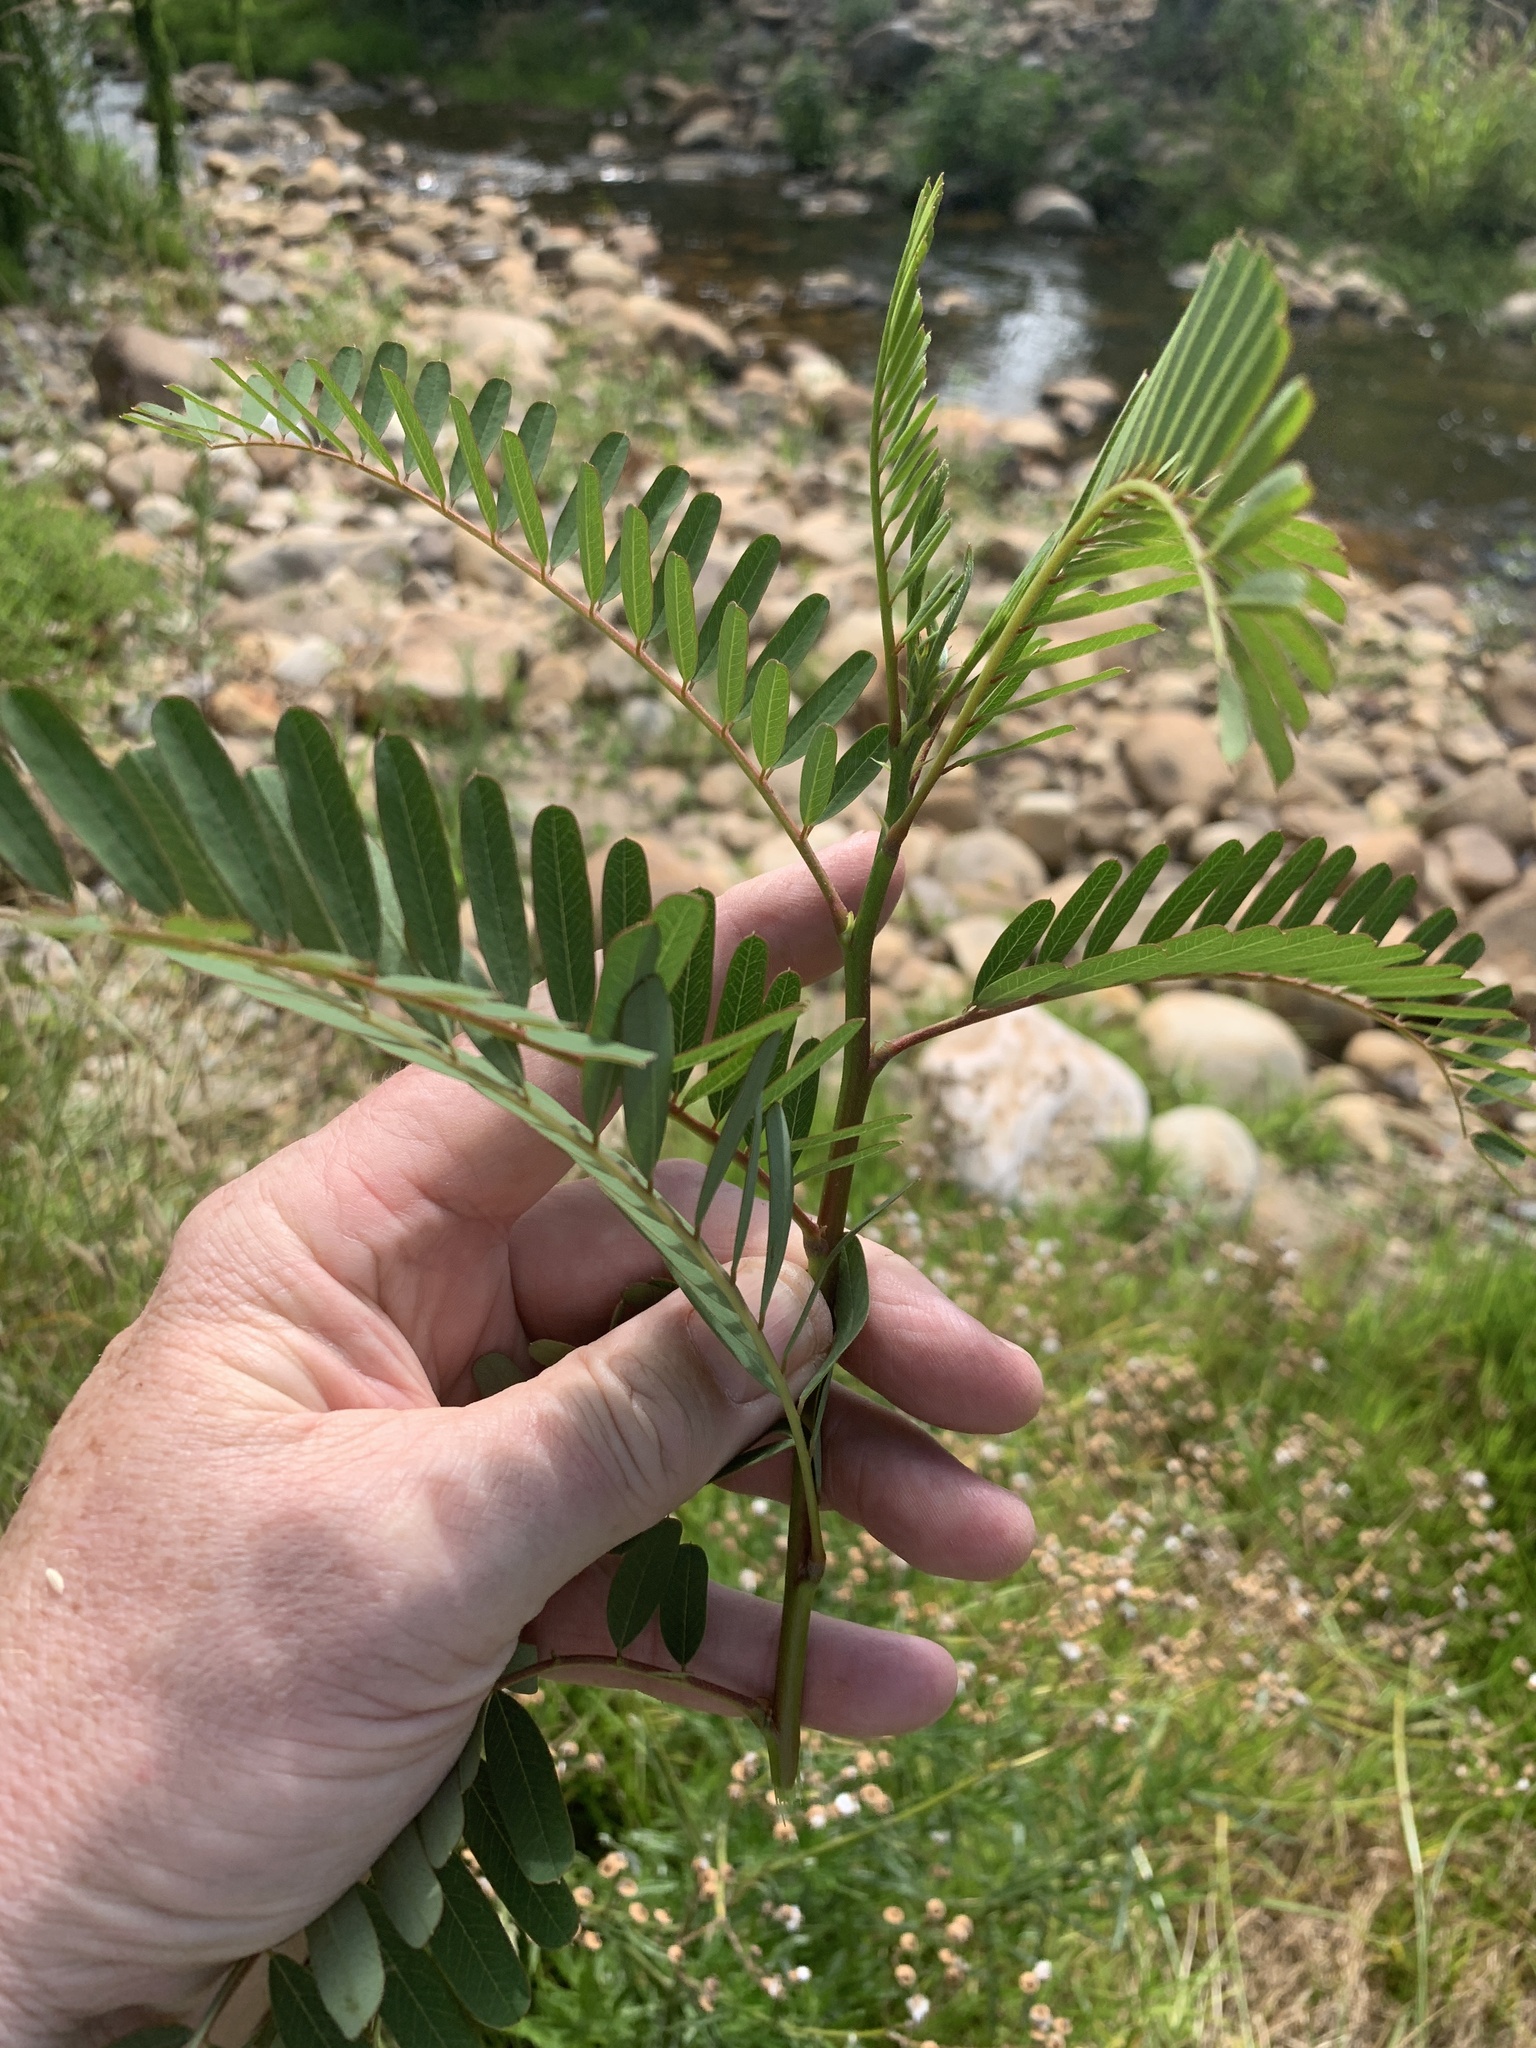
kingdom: Plantae
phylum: Tracheophyta
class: Magnoliopsida
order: Fabales
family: Fabaceae
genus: Sesbania
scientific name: Sesbania punicea
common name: Rattlebox
